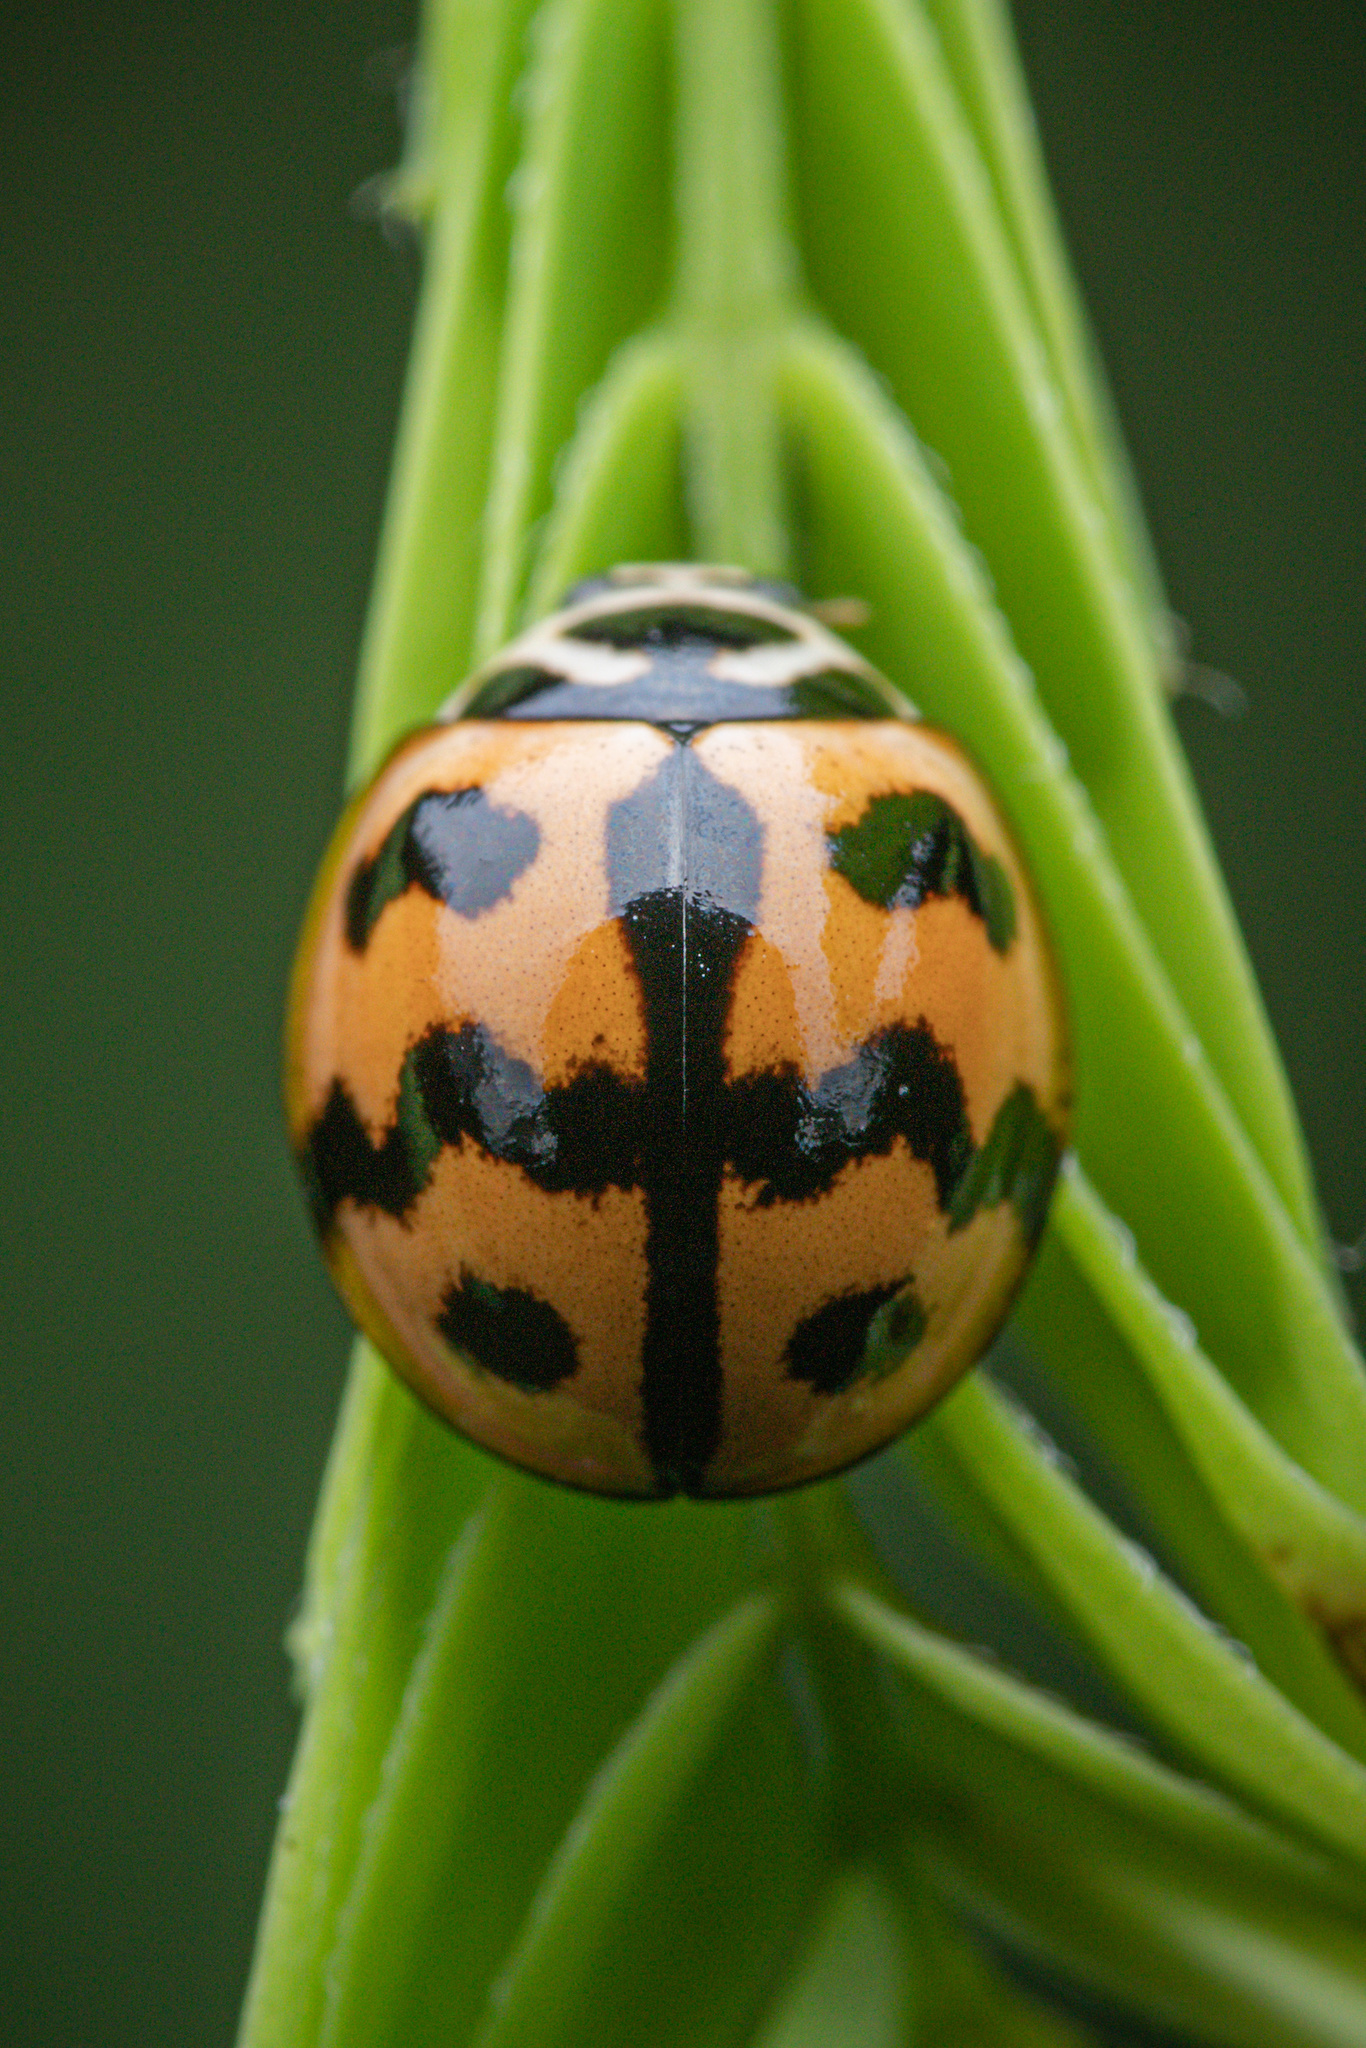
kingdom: Animalia
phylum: Arthropoda
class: Insecta
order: Coleoptera
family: Coccinellidae
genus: Cheilomenes
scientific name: Cheilomenes sexmaculata
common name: Ladybird beetle
